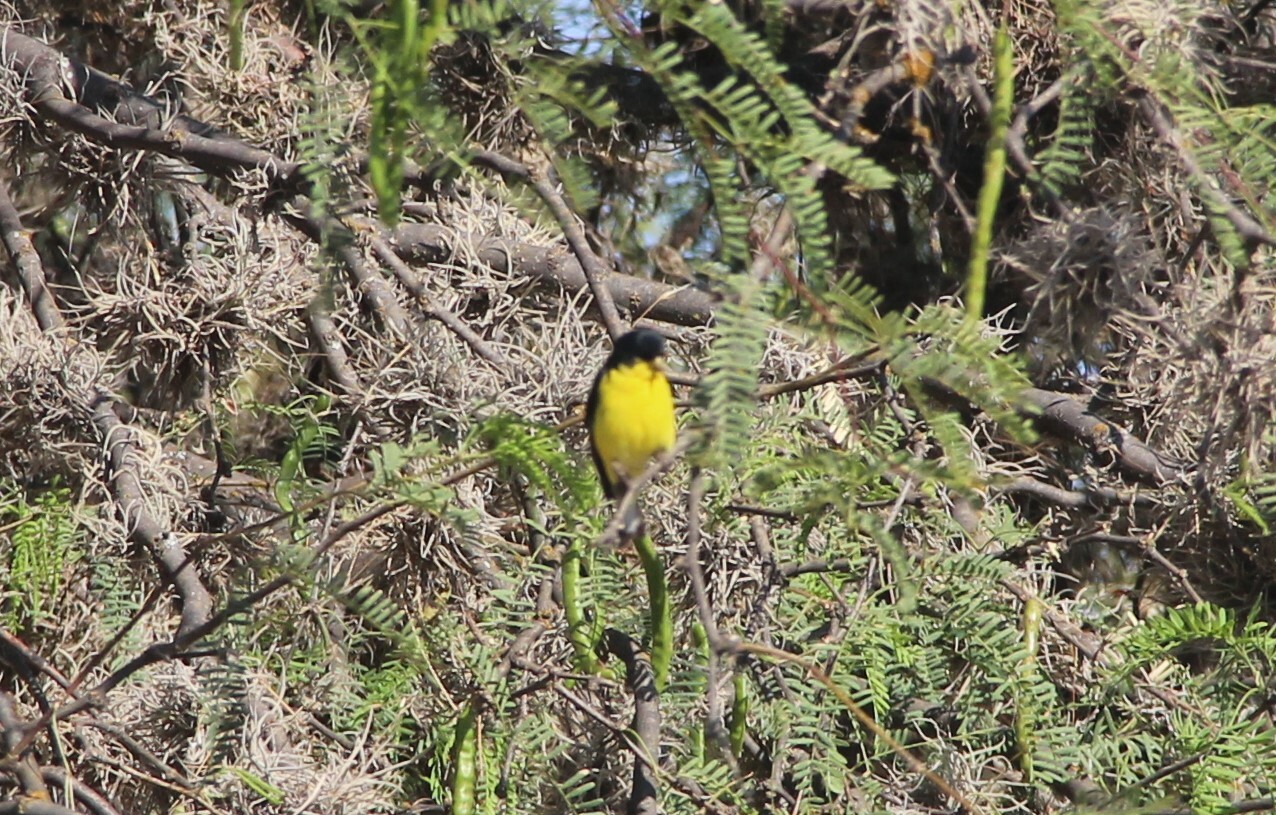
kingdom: Animalia
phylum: Chordata
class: Aves
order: Passeriformes
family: Fringillidae
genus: Spinus
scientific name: Spinus psaltria
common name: Lesser goldfinch
